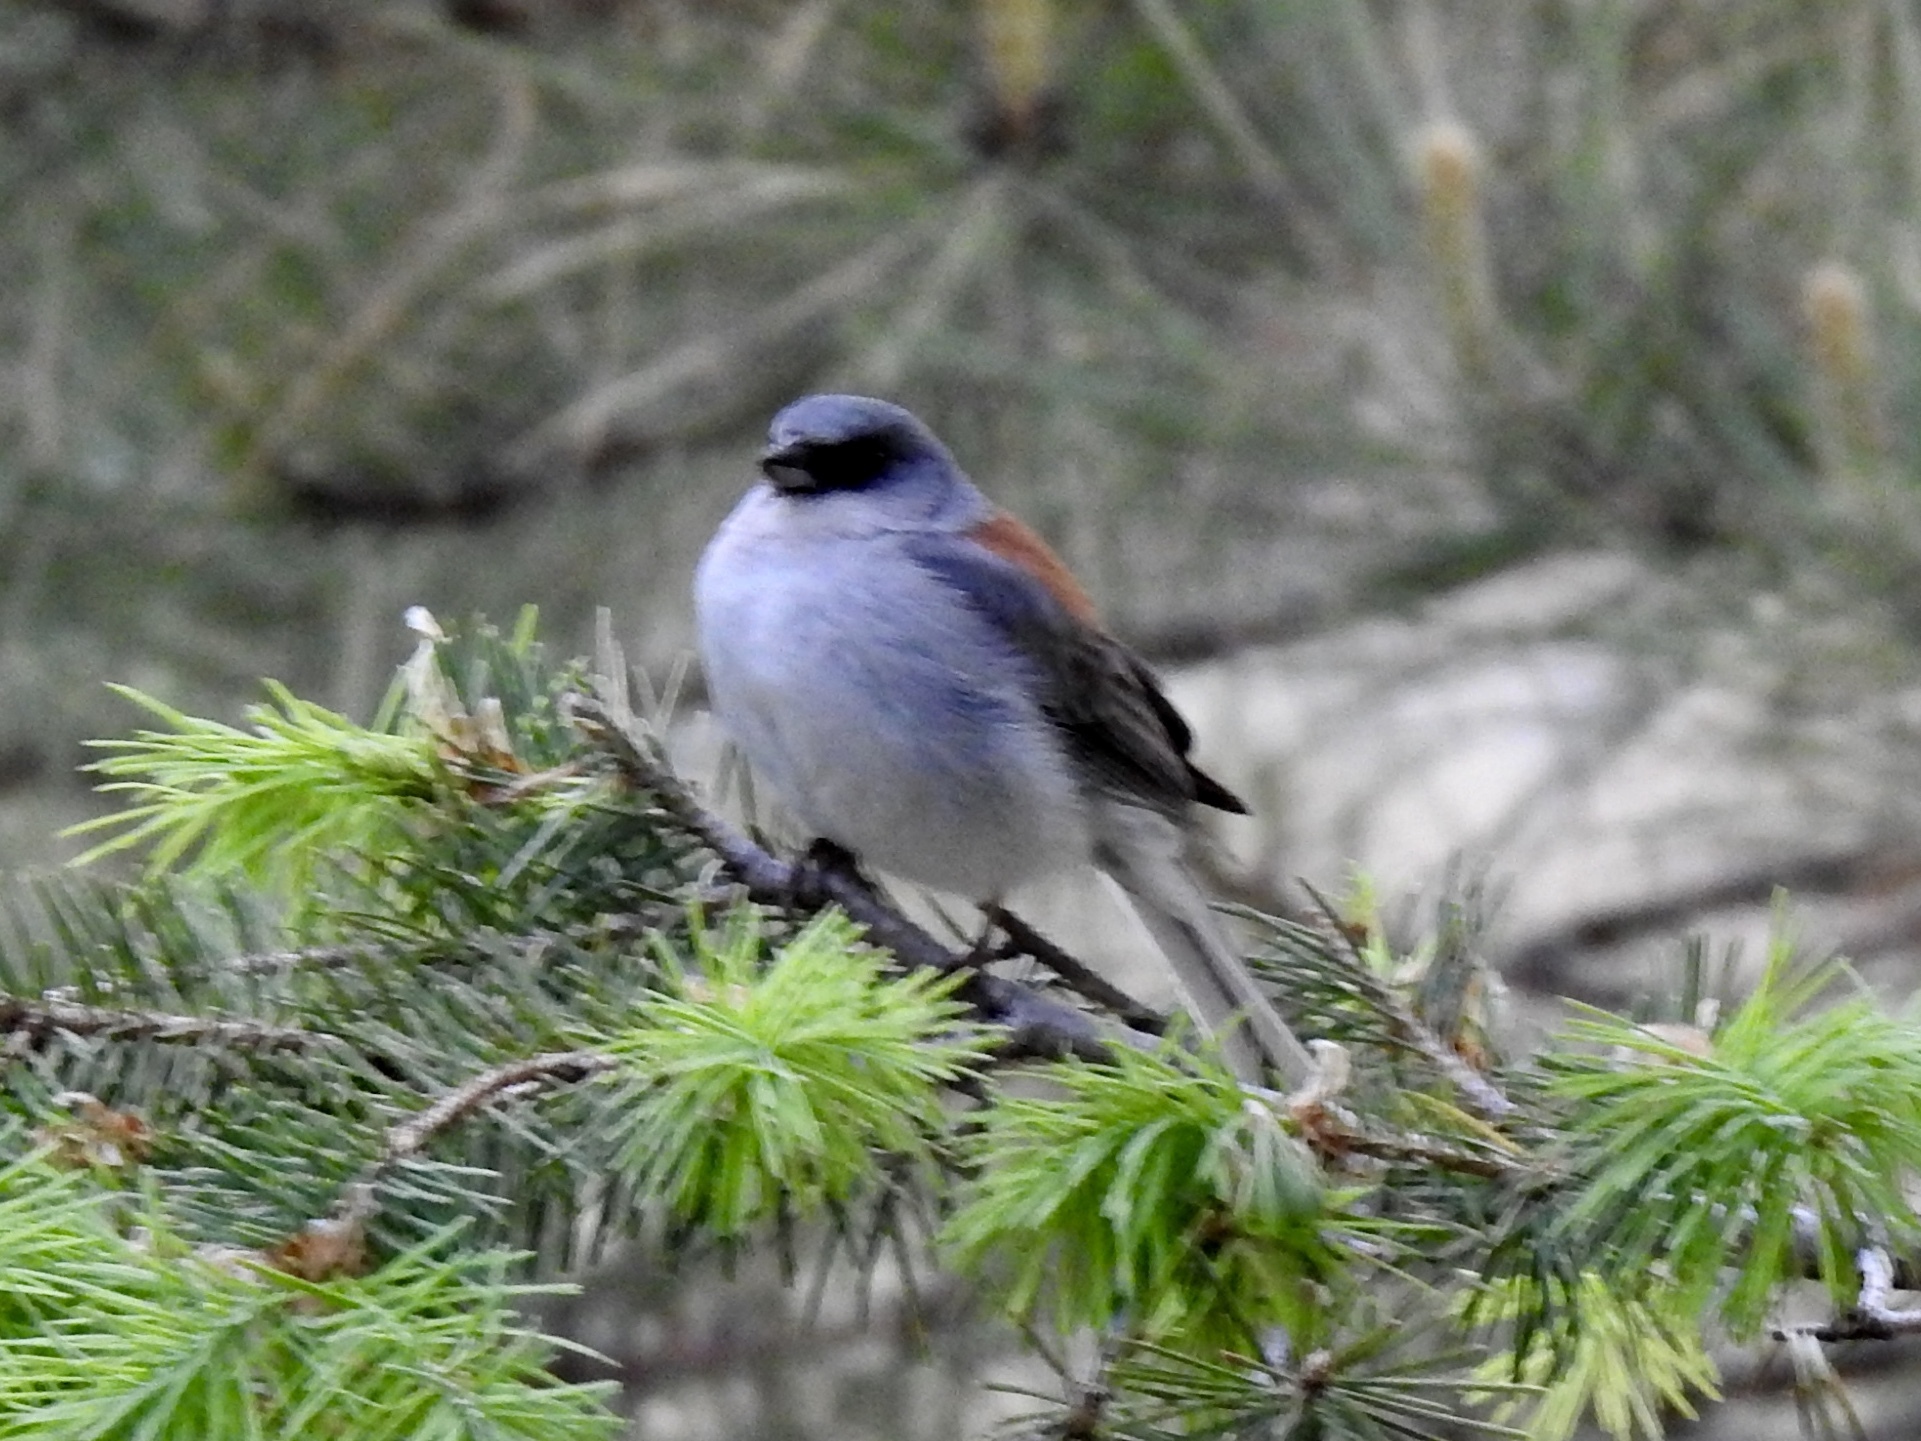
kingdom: Animalia
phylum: Chordata
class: Aves
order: Passeriformes
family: Passerellidae
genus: Junco
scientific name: Junco hyemalis
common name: Dark-eyed junco
